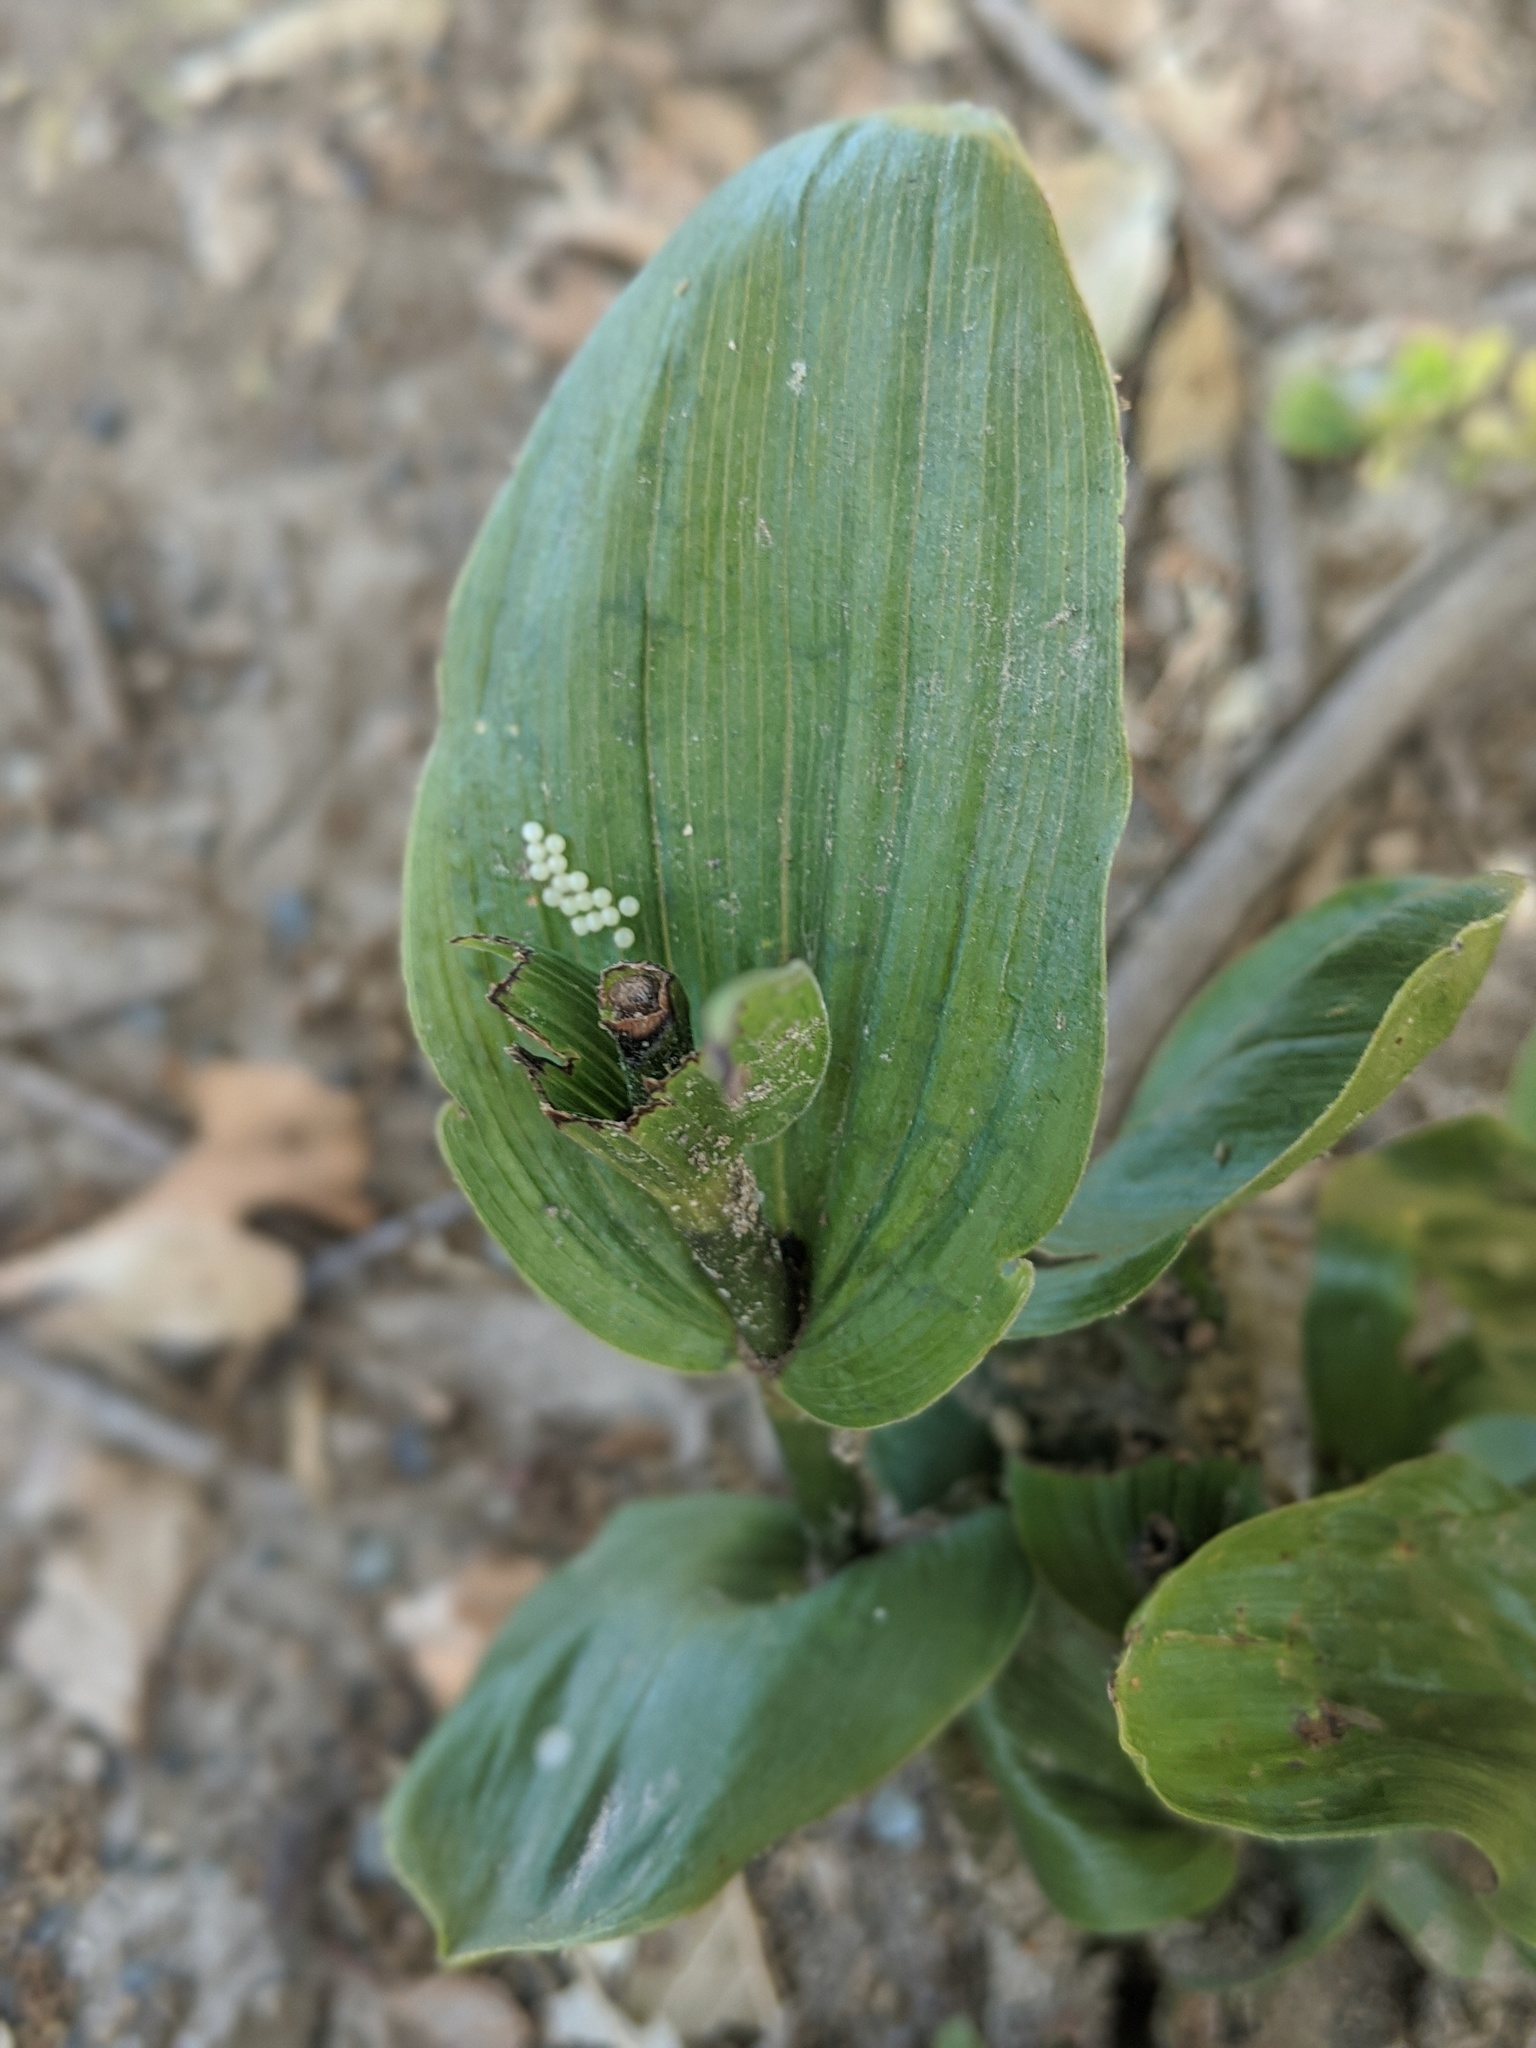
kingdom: Plantae
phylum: Tracheophyta
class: Liliopsida
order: Asparagales
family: Orchidaceae
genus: Epipactis
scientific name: Epipactis helleborine
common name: Broad-leaved helleborine
